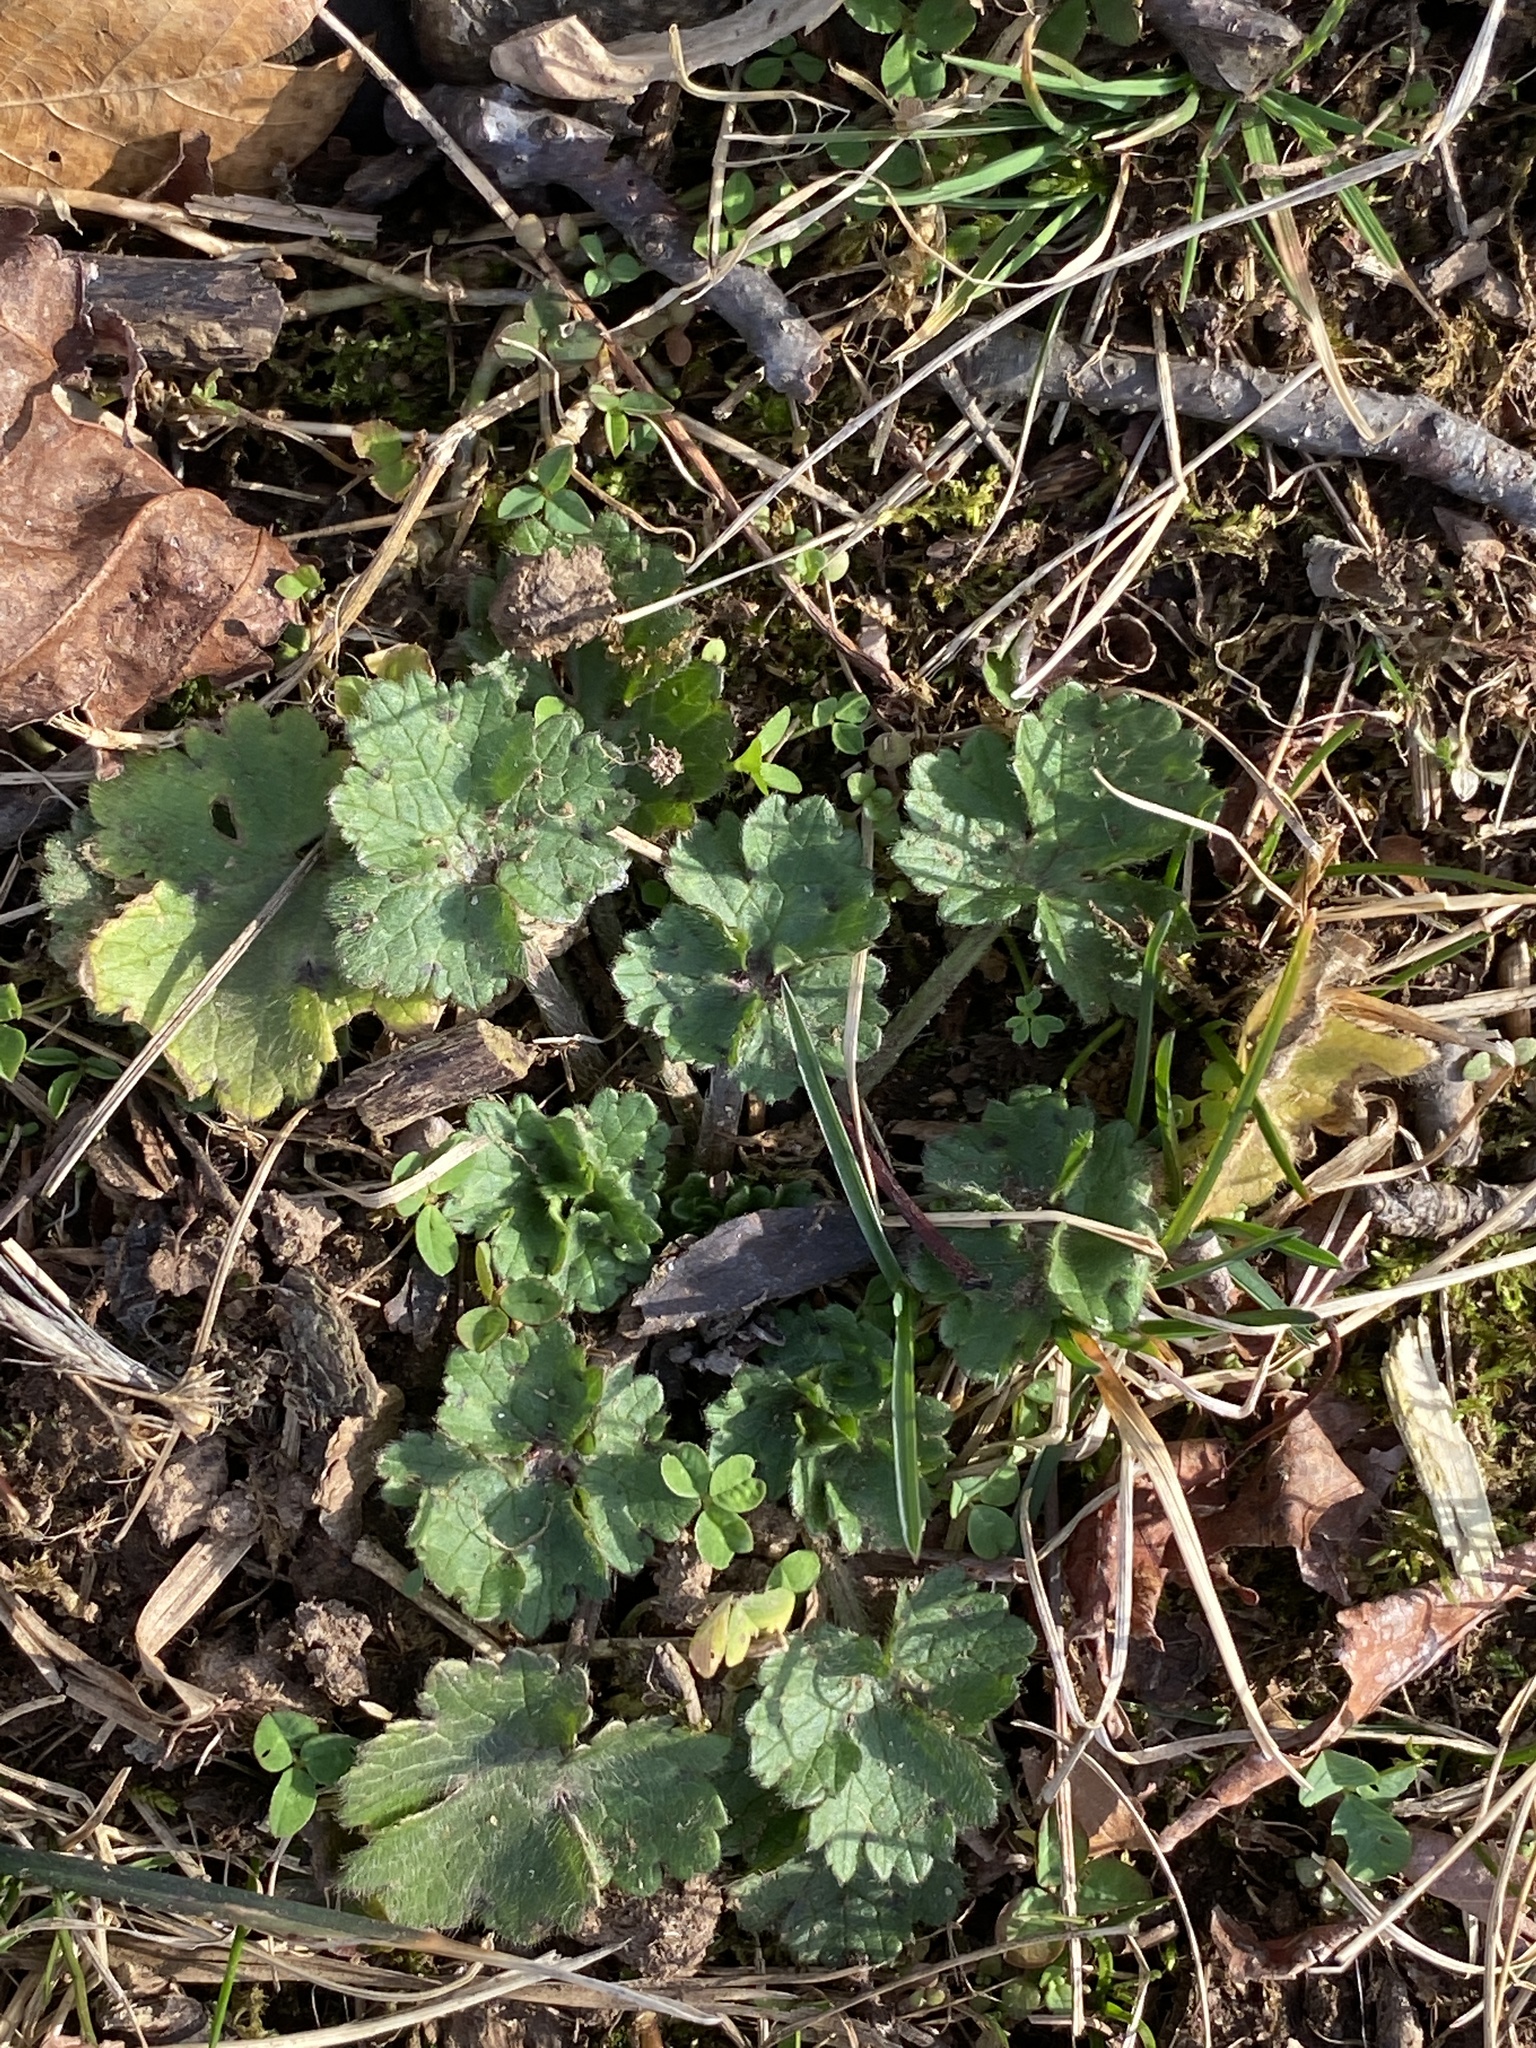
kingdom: Plantae
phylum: Tracheophyta
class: Magnoliopsida
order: Ranunculales
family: Ranunculaceae
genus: Ranunculus
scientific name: Ranunculus bulbosus
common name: Bulbous buttercup
